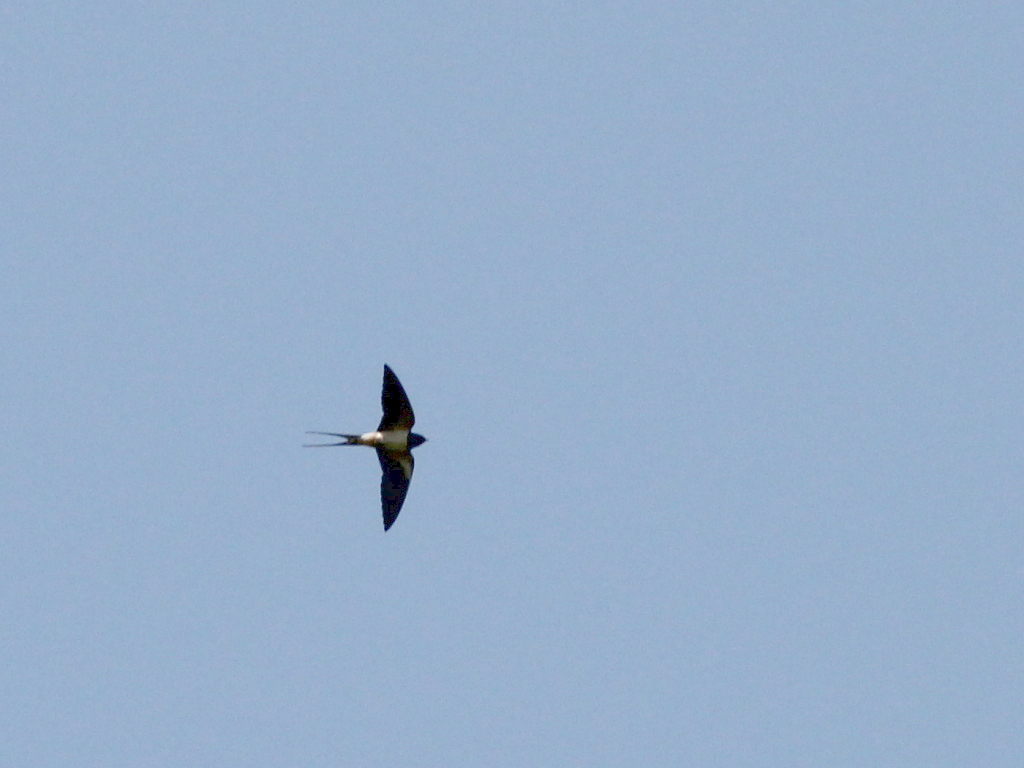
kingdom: Animalia
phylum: Chordata
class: Aves
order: Passeriformes
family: Hirundinidae
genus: Hirundo
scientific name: Hirundo rustica
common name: Barn swallow
